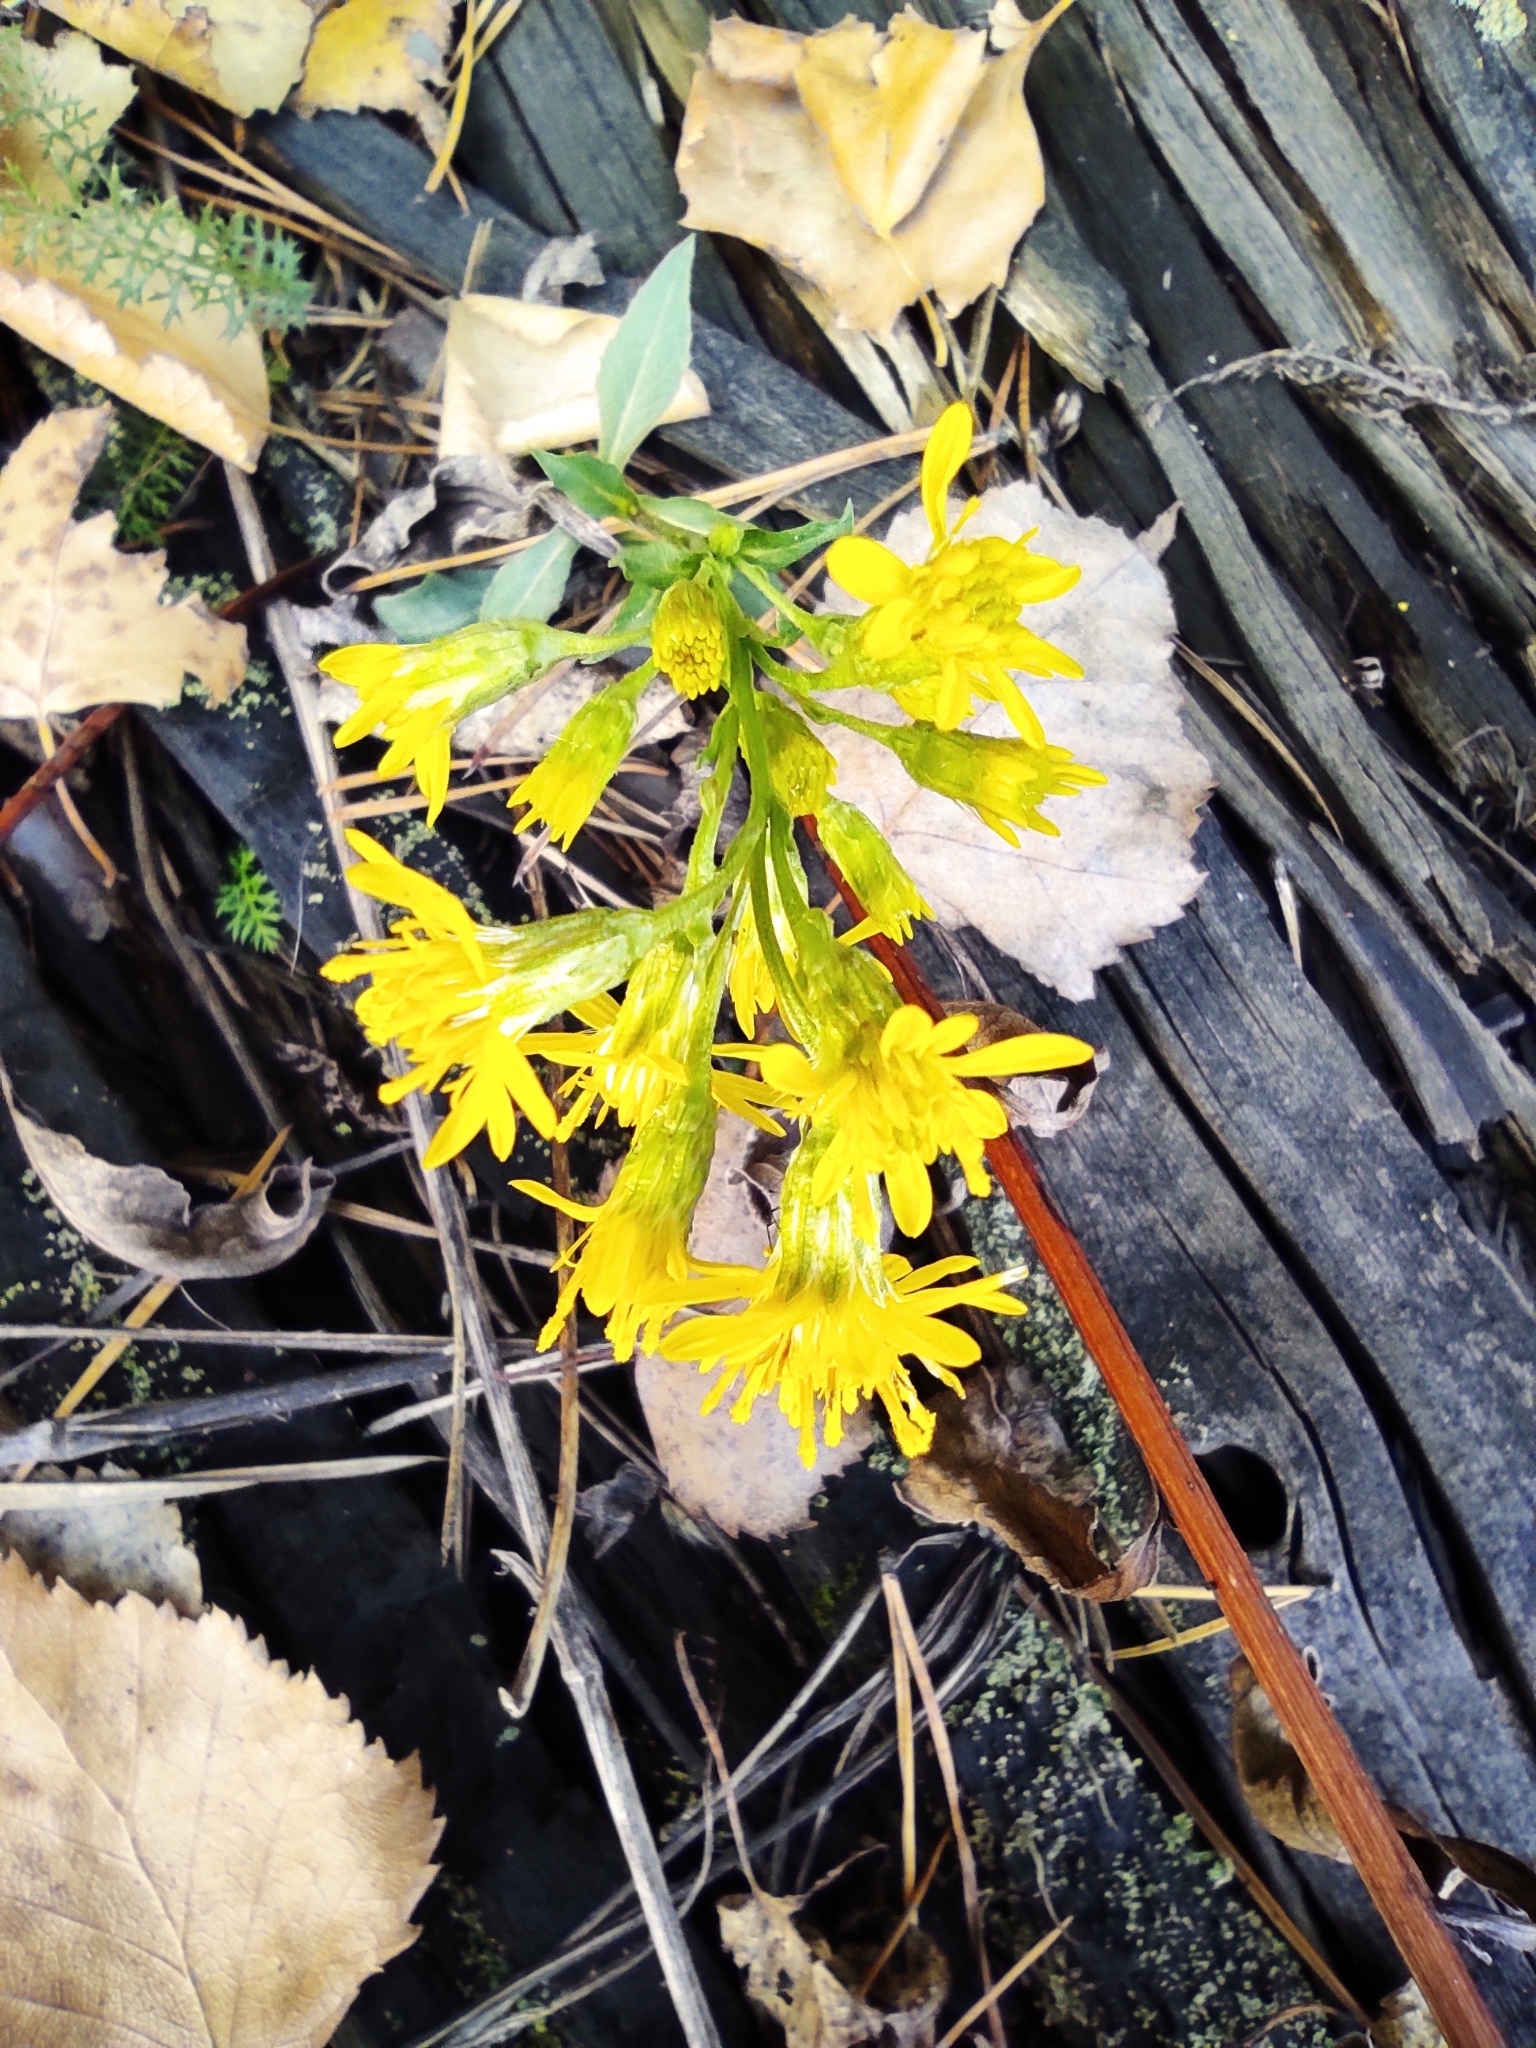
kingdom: Plantae
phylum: Tracheophyta
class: Magnoliopsida
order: Asterales
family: Asteraceae
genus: Solidago
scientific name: Solidago virgaurea
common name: Goldenrod
